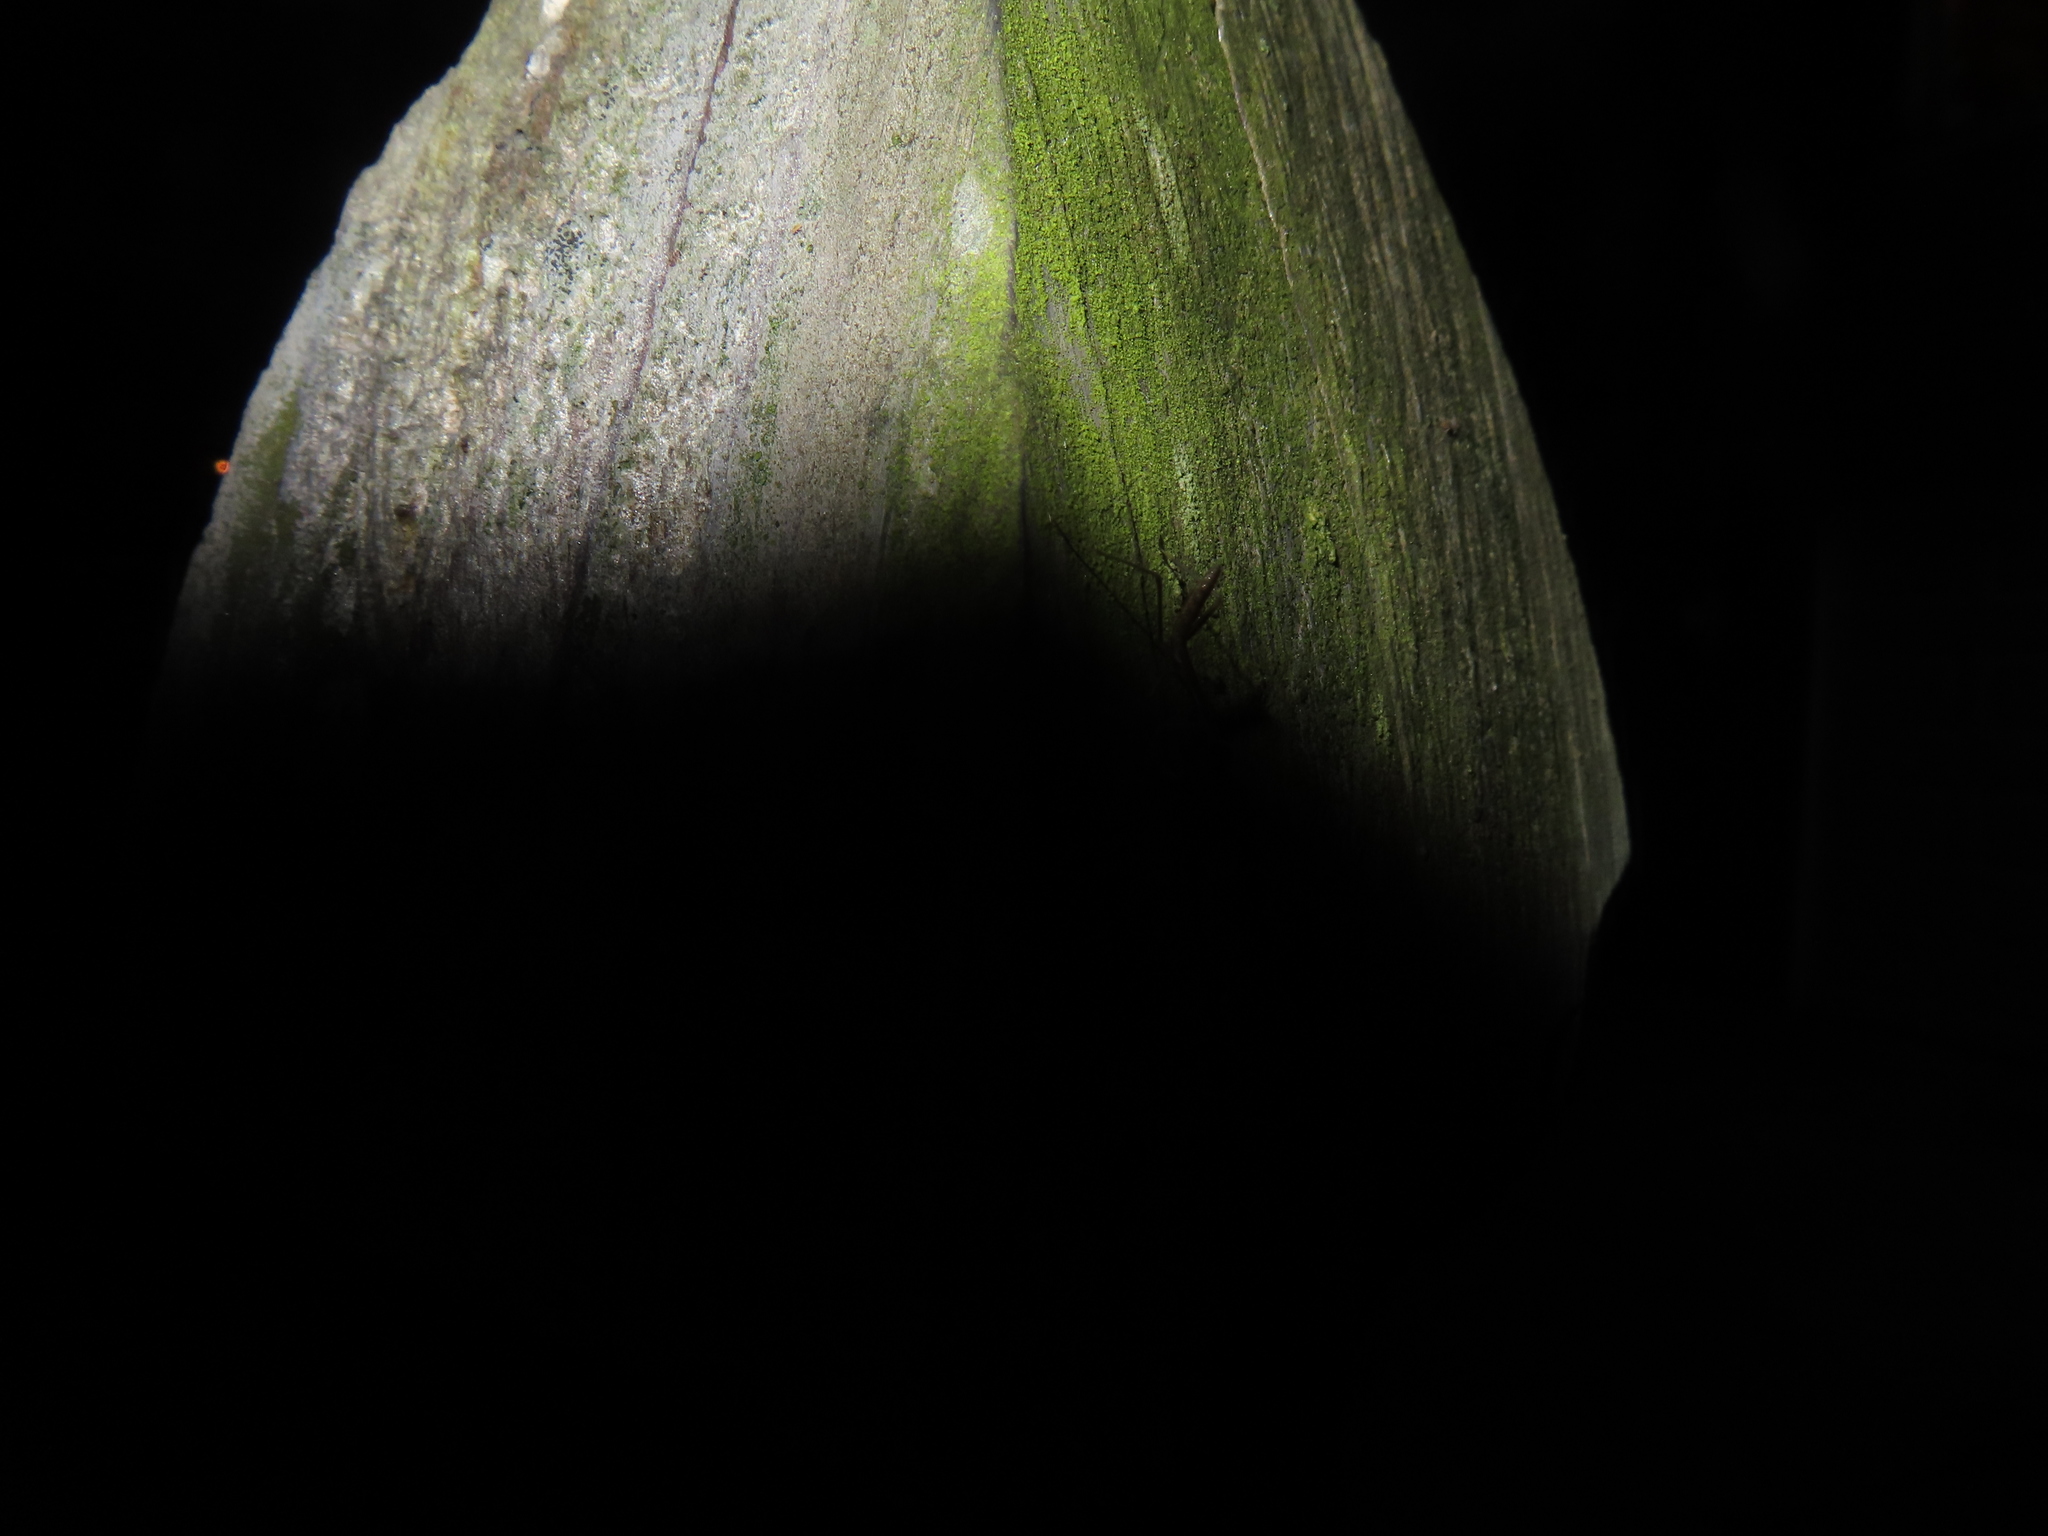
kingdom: Animalia
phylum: Arthropoda
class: Insecta
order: Mantodea
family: Mantidae
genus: Tenodera
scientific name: Tenodera sinensis
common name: Chinese mantis
